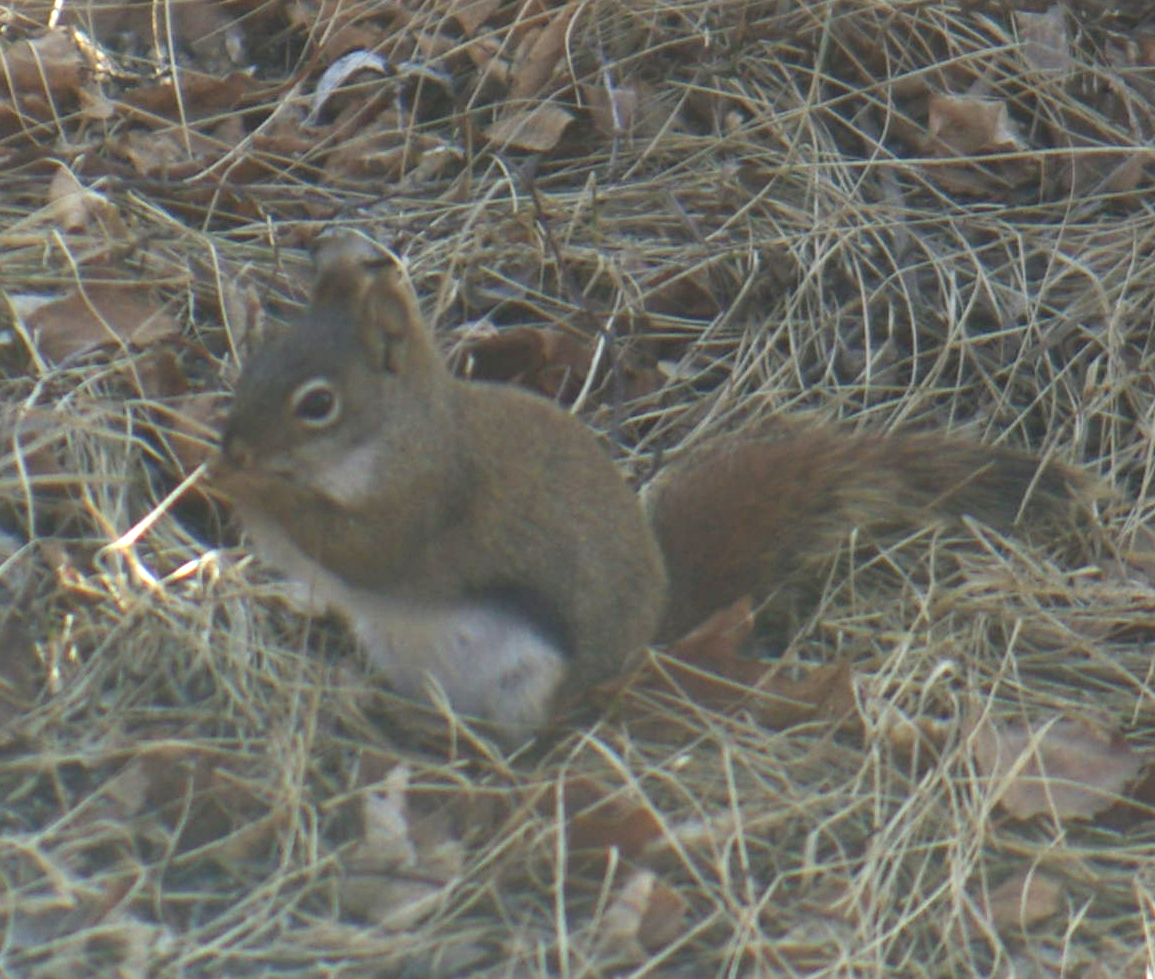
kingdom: Animalia
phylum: Chordata
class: Mammalia
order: Rodentia
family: Sciuridae
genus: Tamiasciurus
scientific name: Tamiasciurus hudsonicus
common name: Red squirrel
